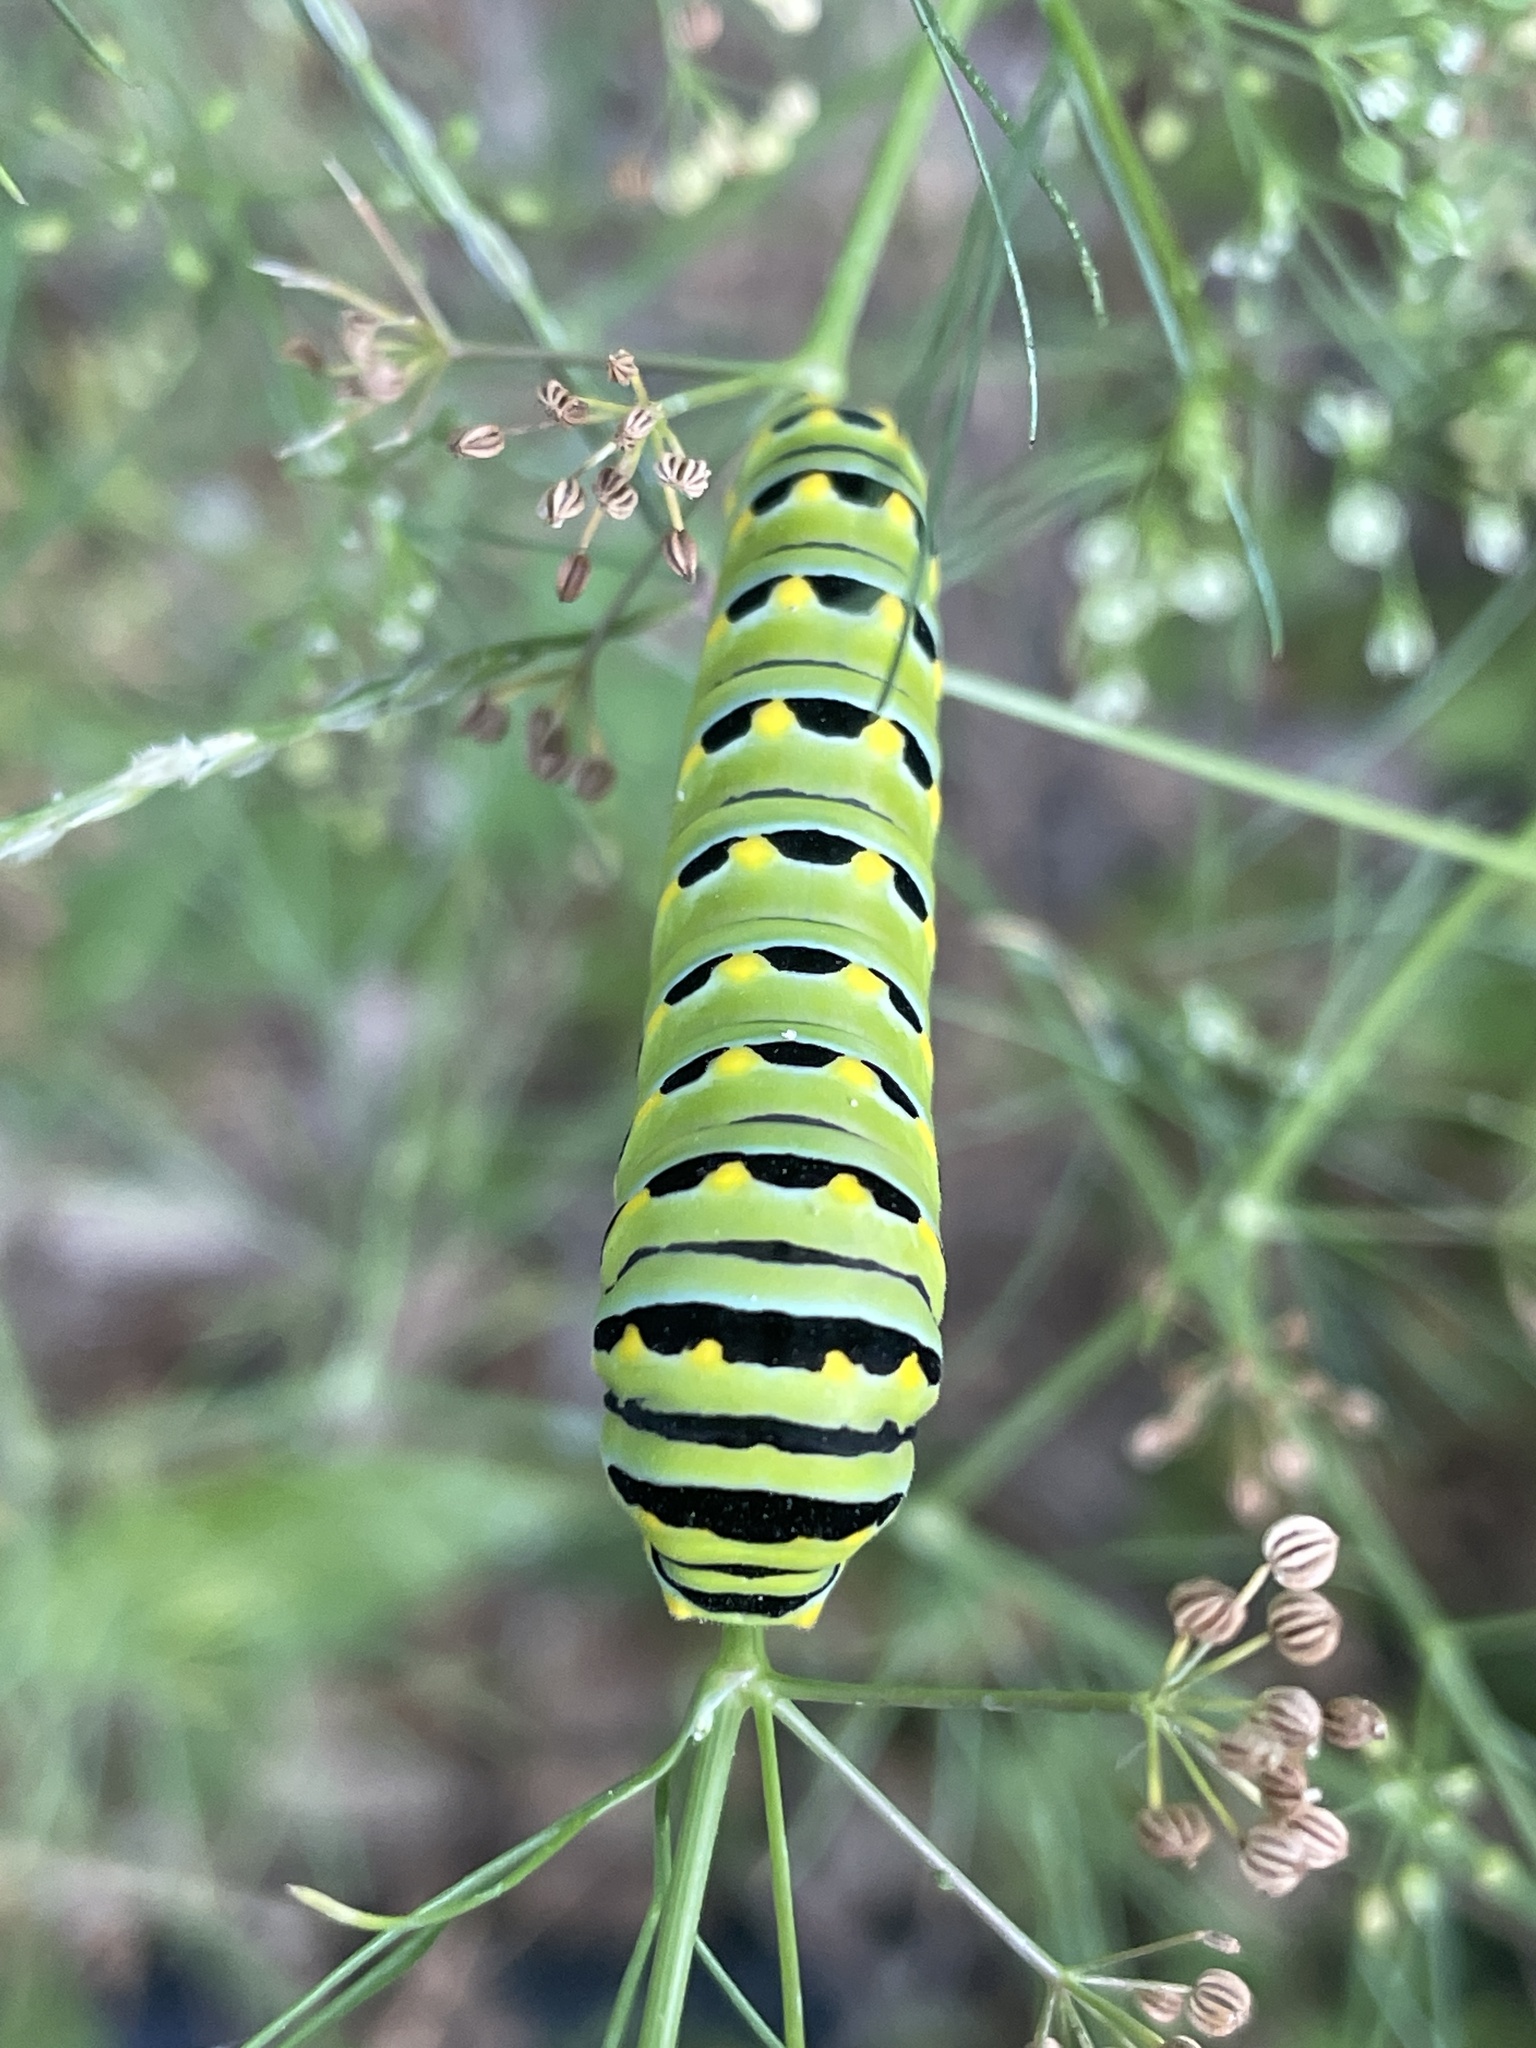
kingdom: Animalia
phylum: Arthropoda
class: Insecta
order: Lepidoptera
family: Papilionidae
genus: Papilio
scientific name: Papilio polyxenes
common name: Black swallowtail
